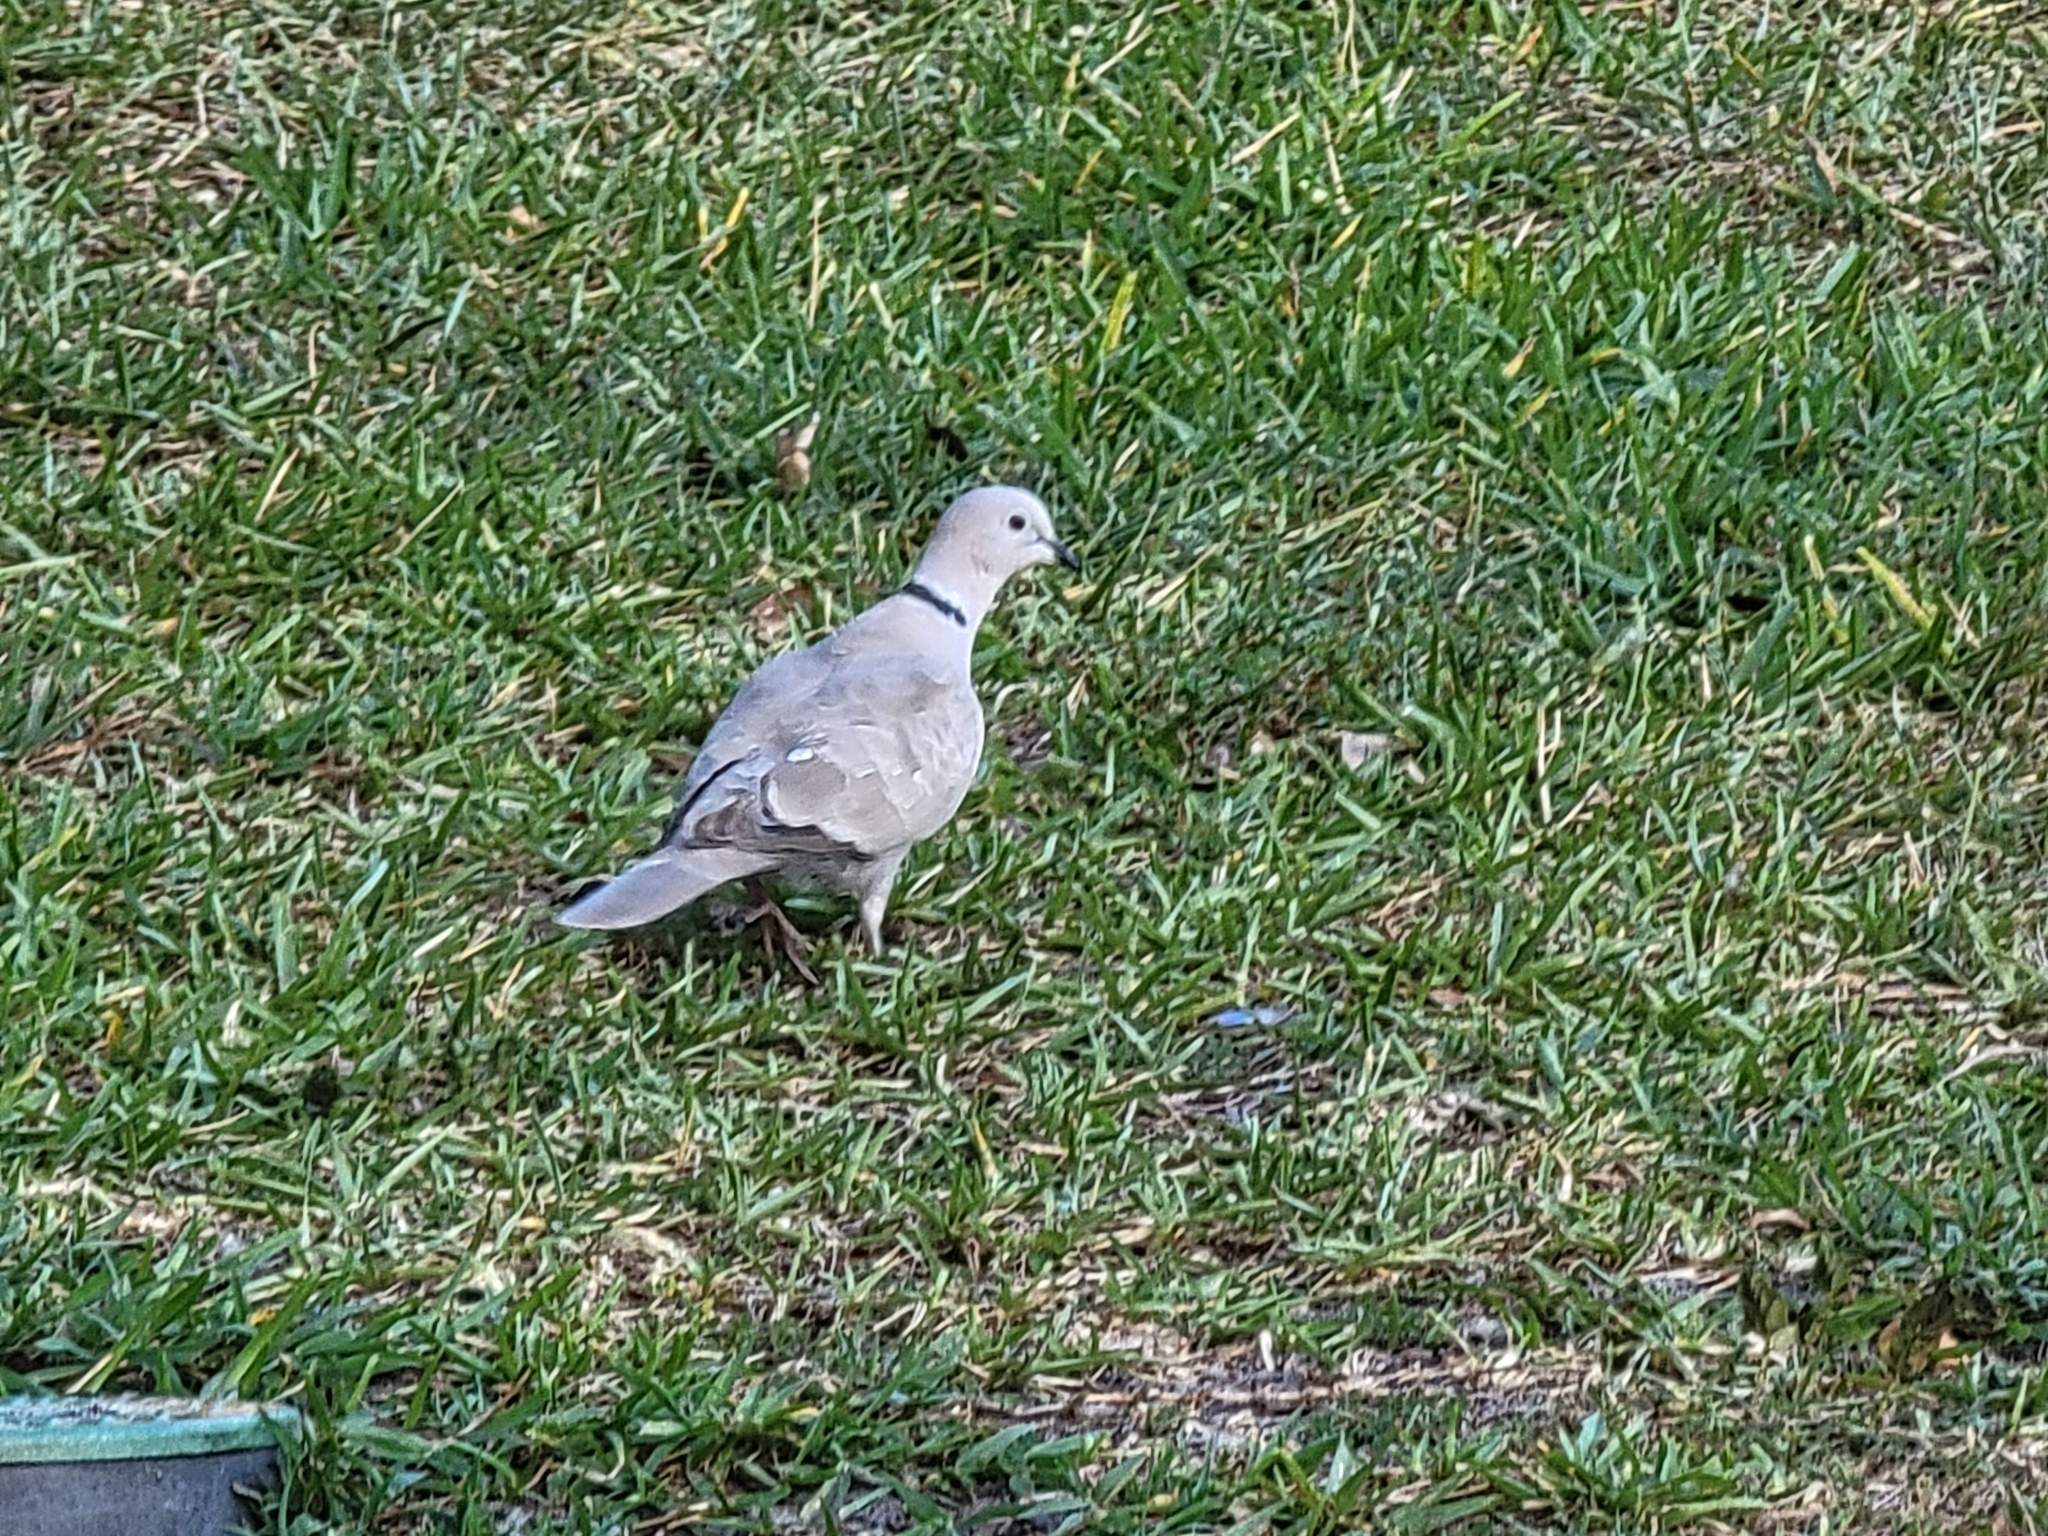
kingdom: Animalia
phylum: Chordata
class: Aves
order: Columbiformes
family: Columbidae
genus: Streptopelia
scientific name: Streptopelia decaocto
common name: Eurasian collared dove
